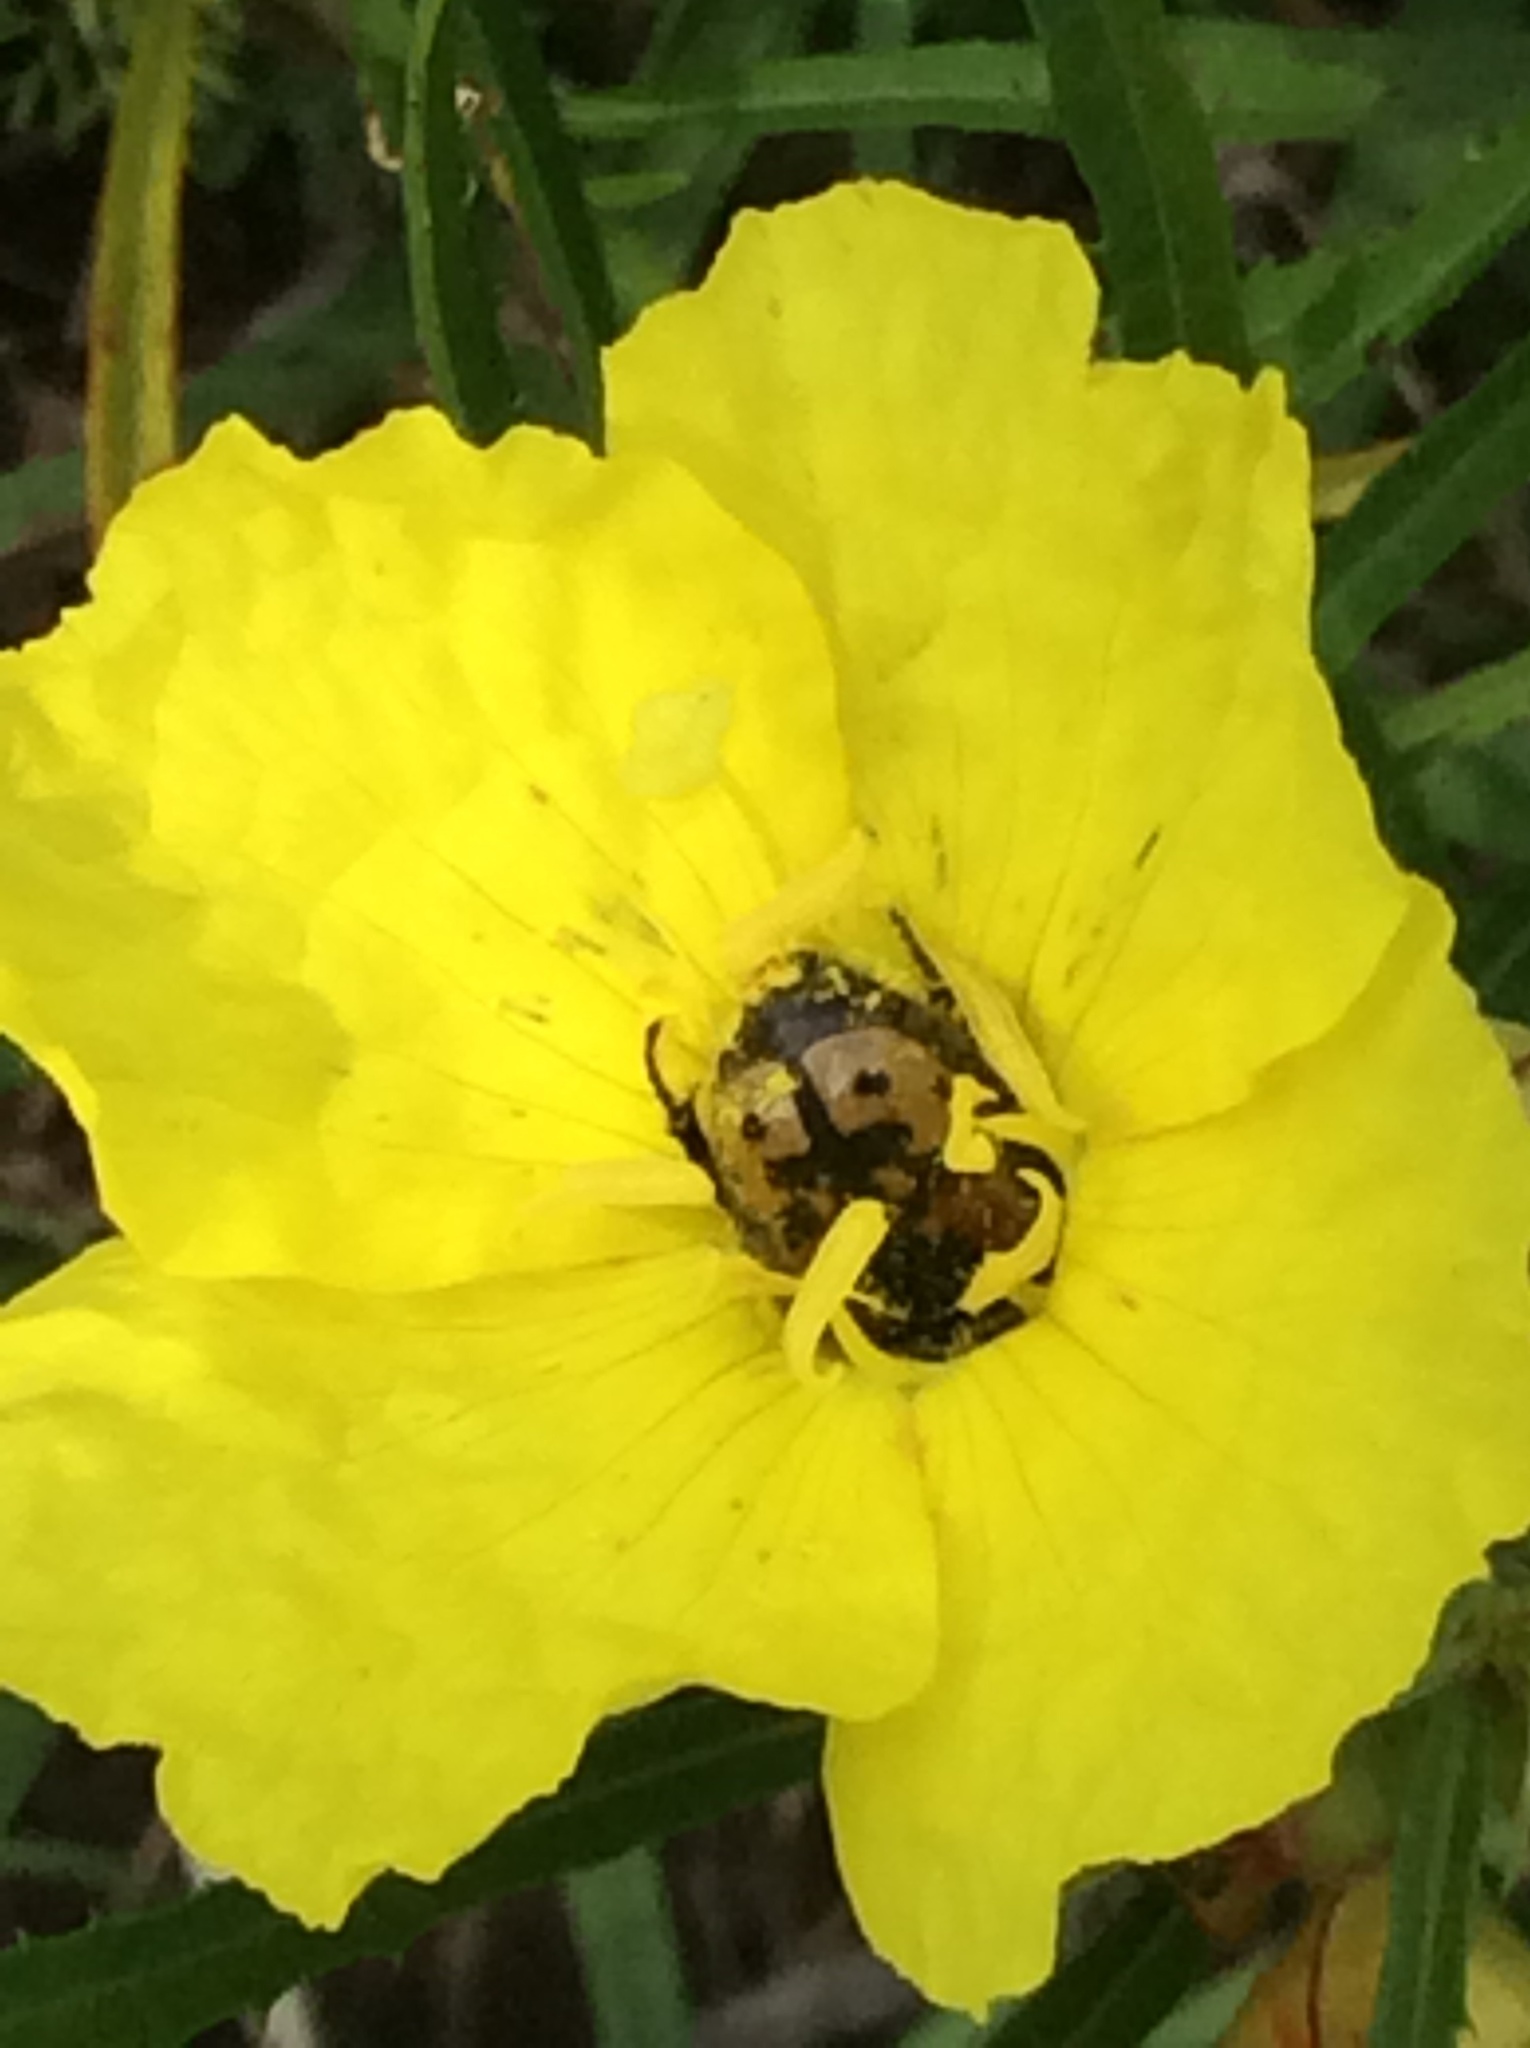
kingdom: Animalia
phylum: Arthropoda
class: Insecta
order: Coleoptera
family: Scarabaeidae
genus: Euphoria
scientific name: Euphoria kernii
